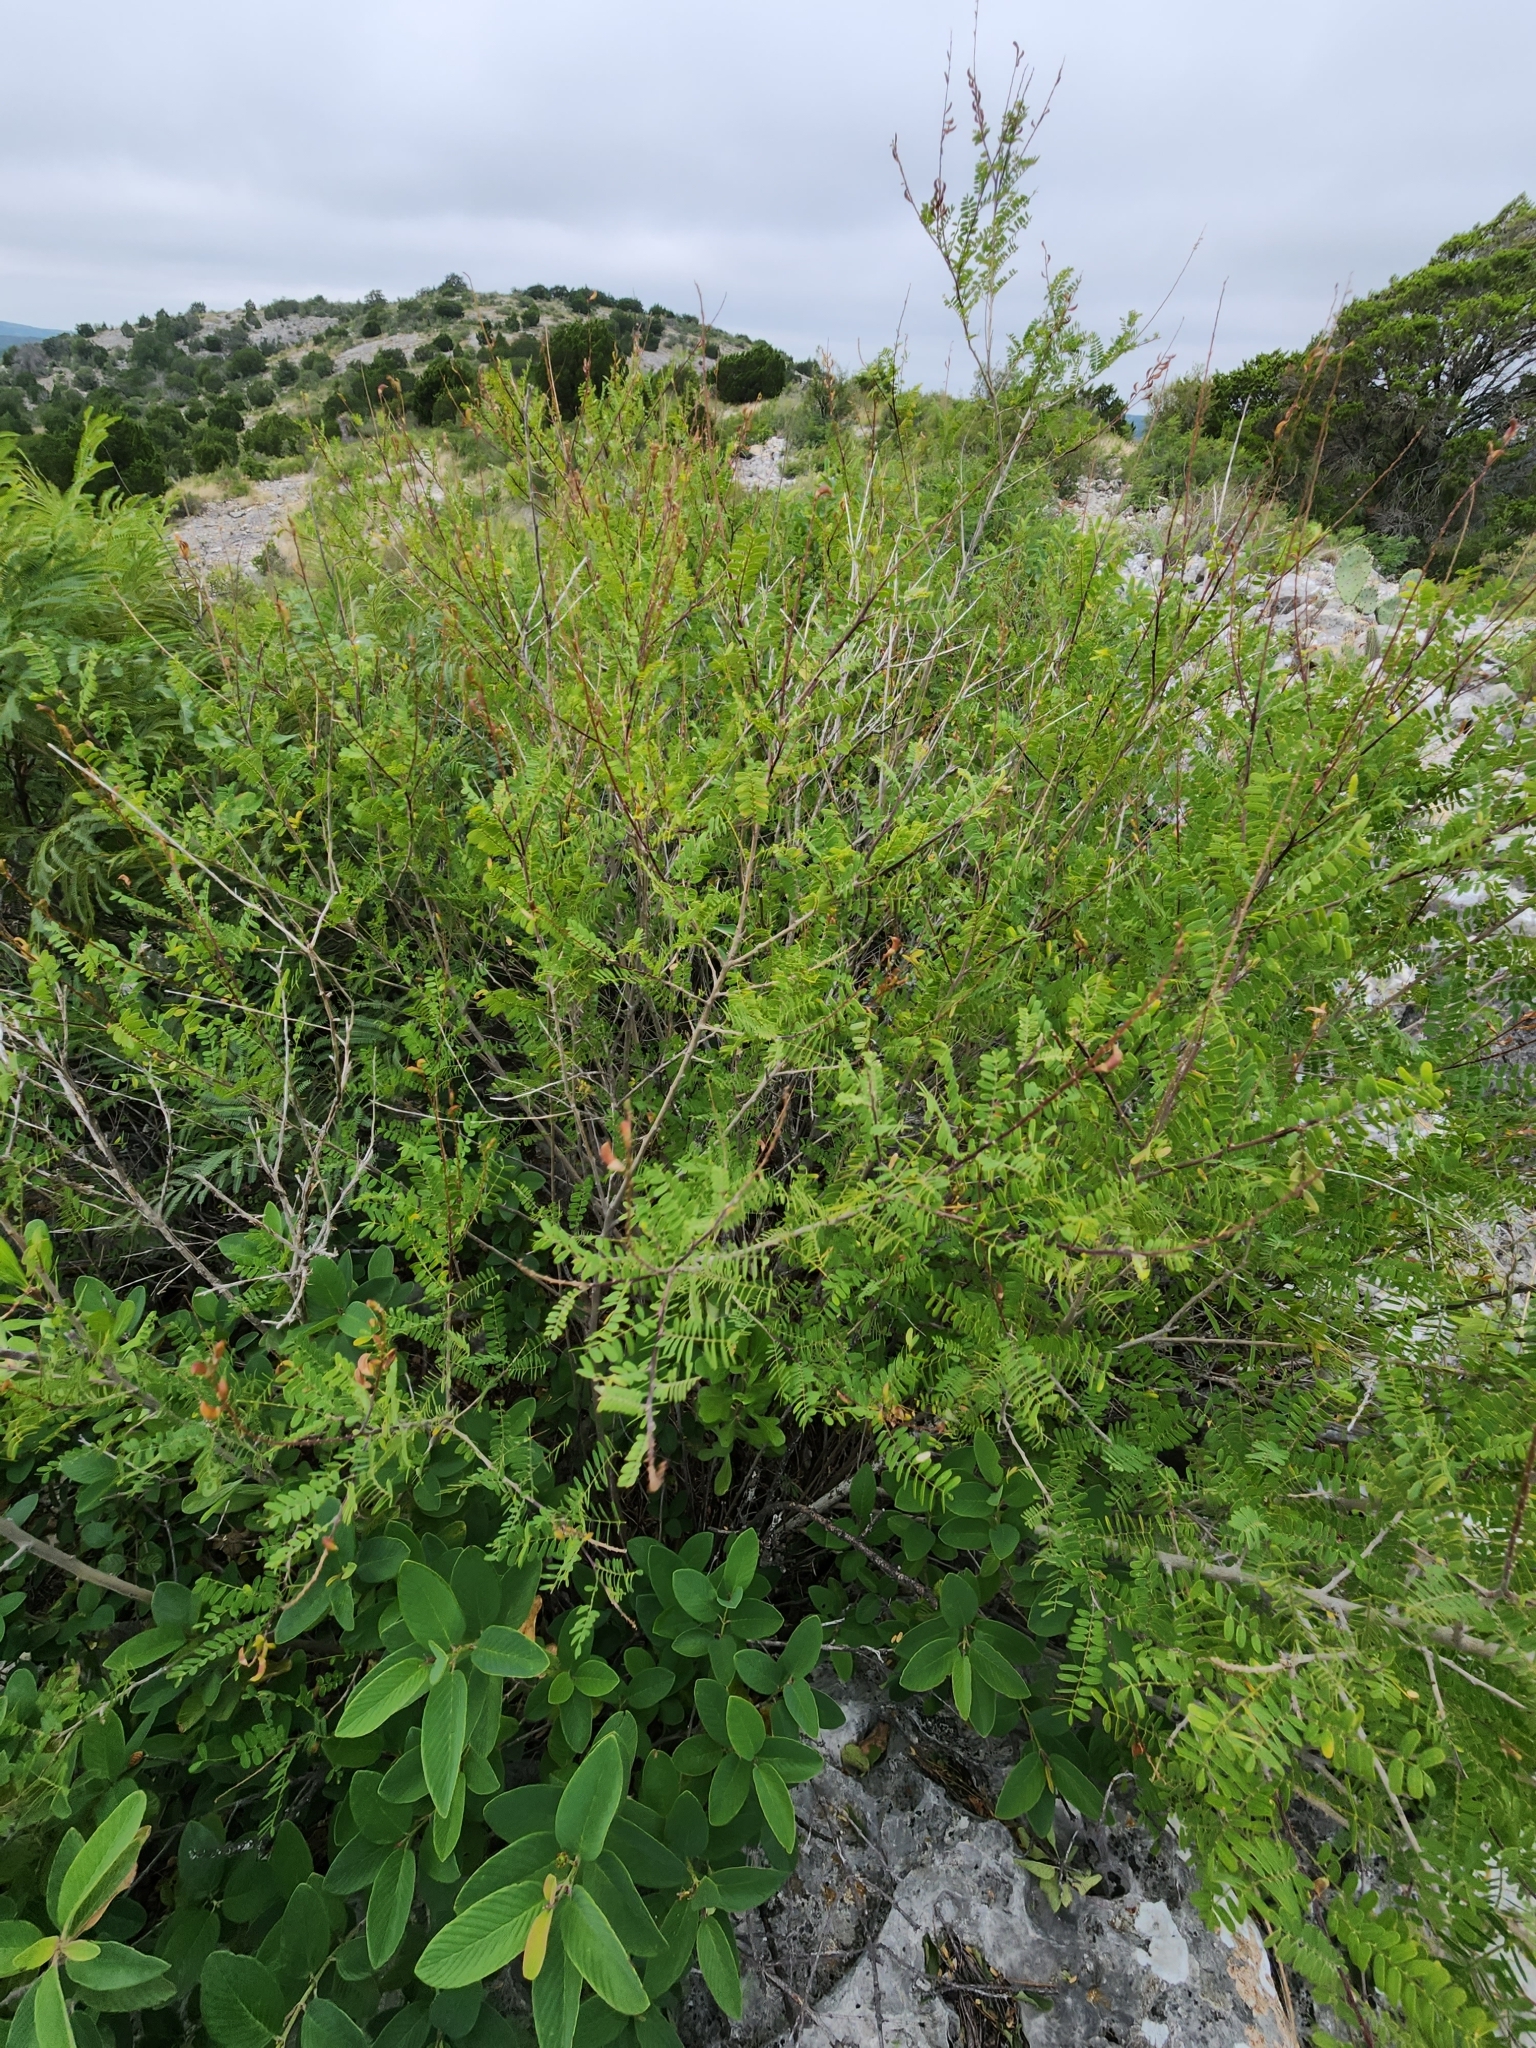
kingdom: Plantae
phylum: Tracheophyta
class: Magnoliopsida
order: Fabales
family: Fabaceae
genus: Eysenhardtia
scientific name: Eysenhardtia texana
